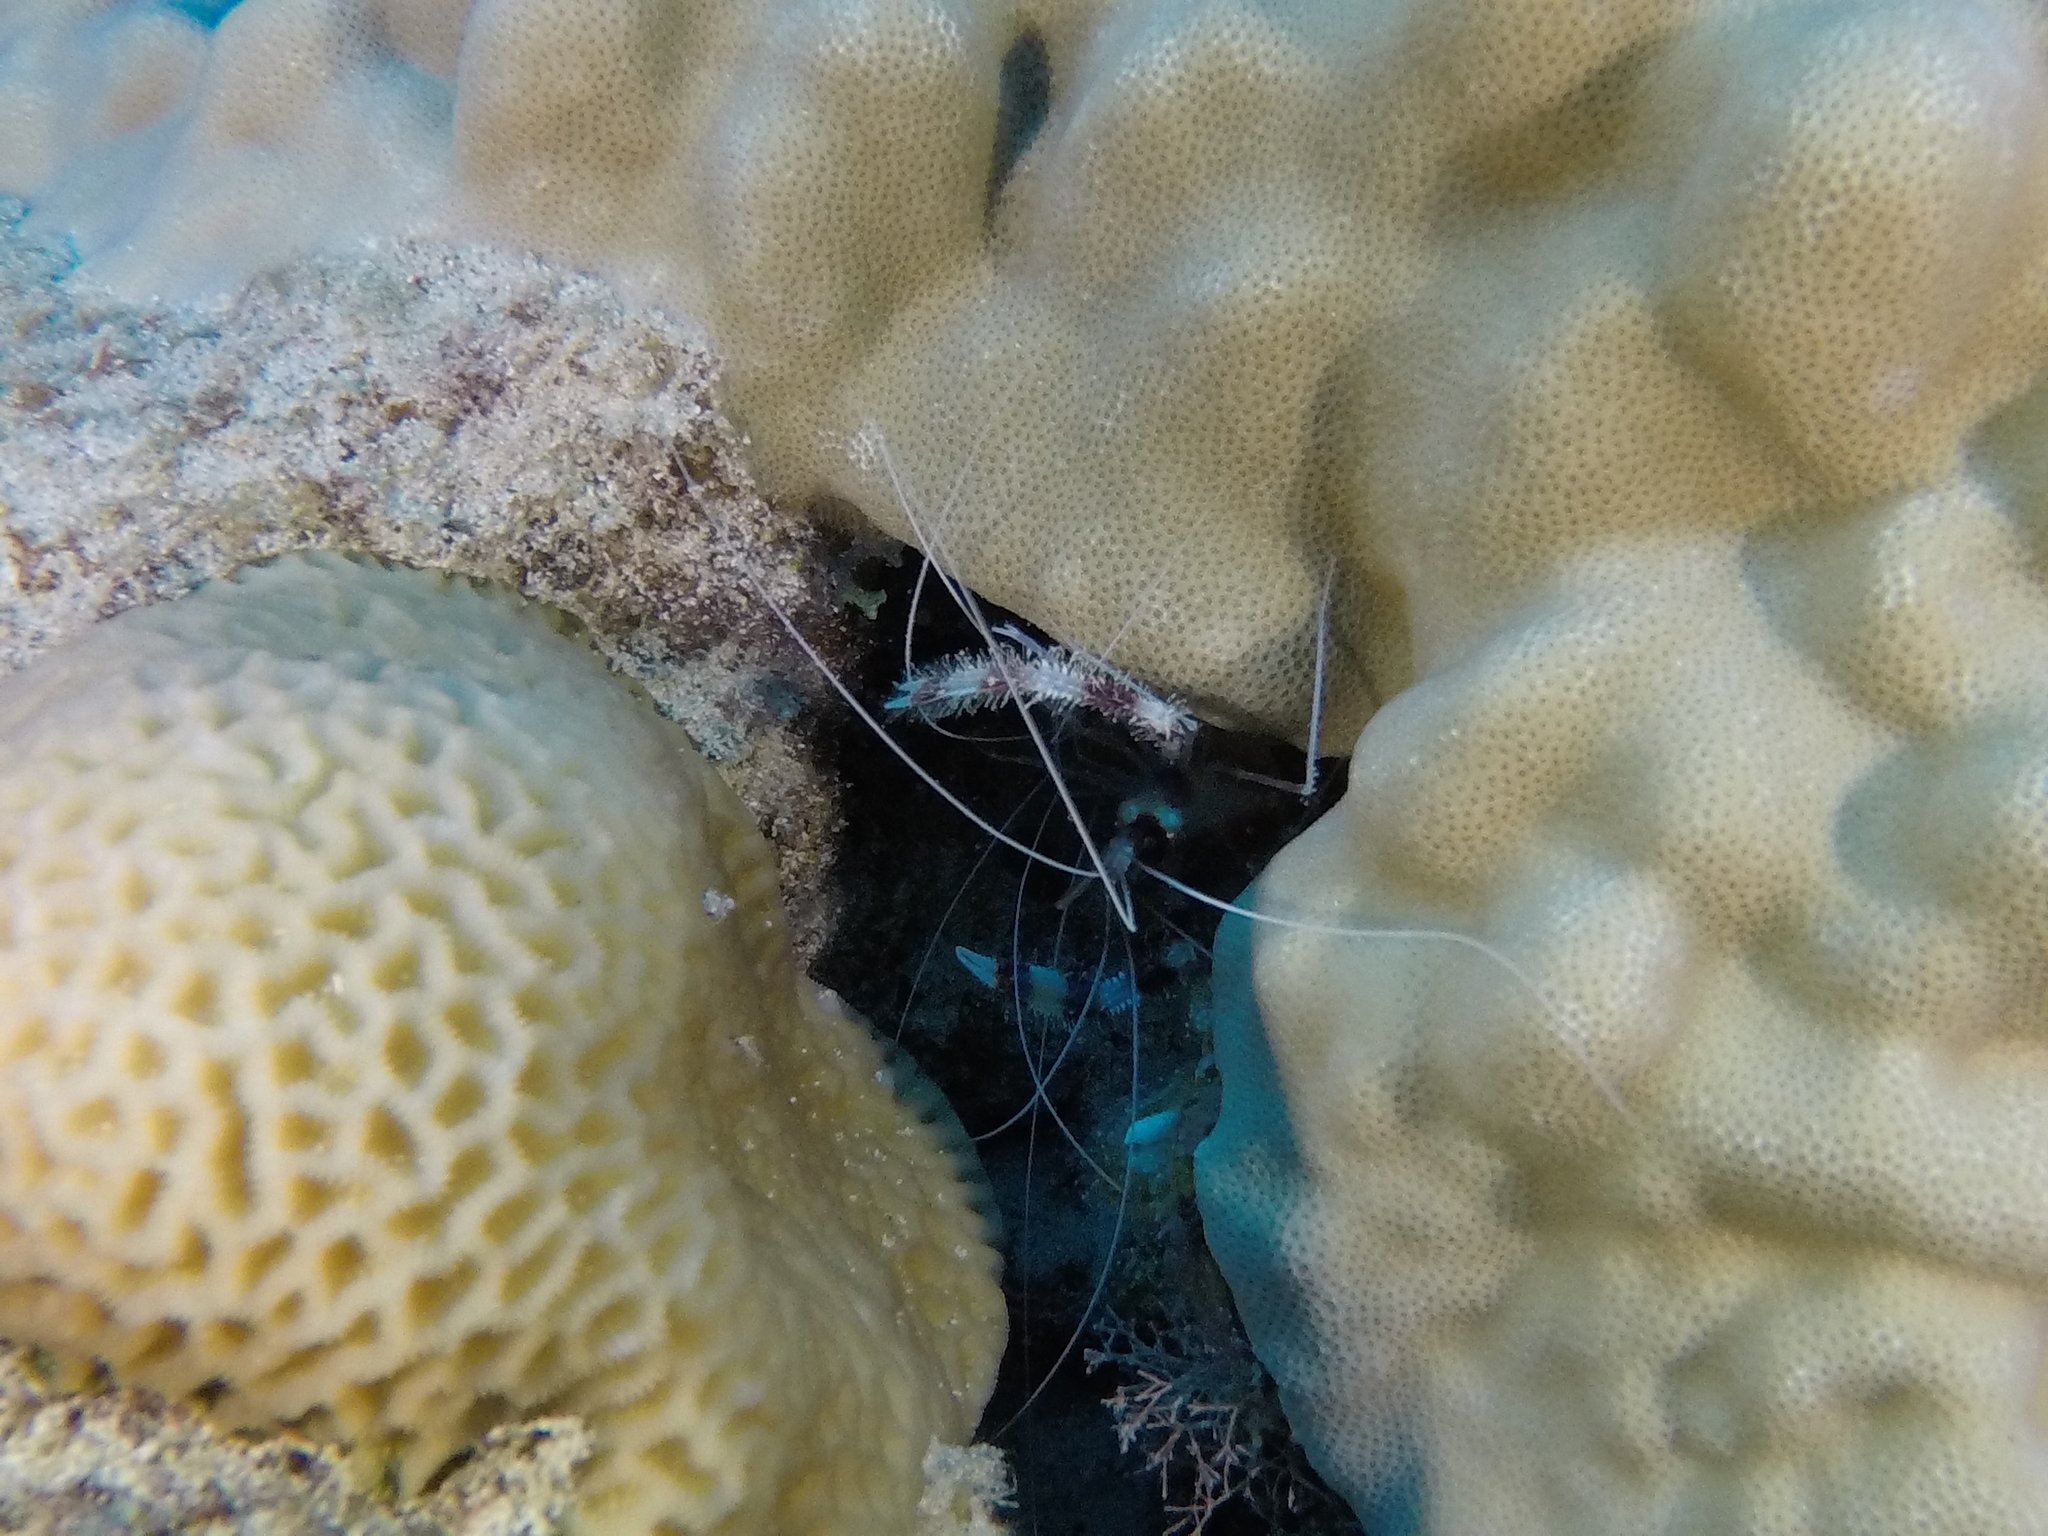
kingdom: Animalia
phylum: Arthropoda
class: Malacostraca
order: Decapoda
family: Stenopodidae
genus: Stenopus
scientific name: Stenopus hispidus
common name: Banded coral shrimp
